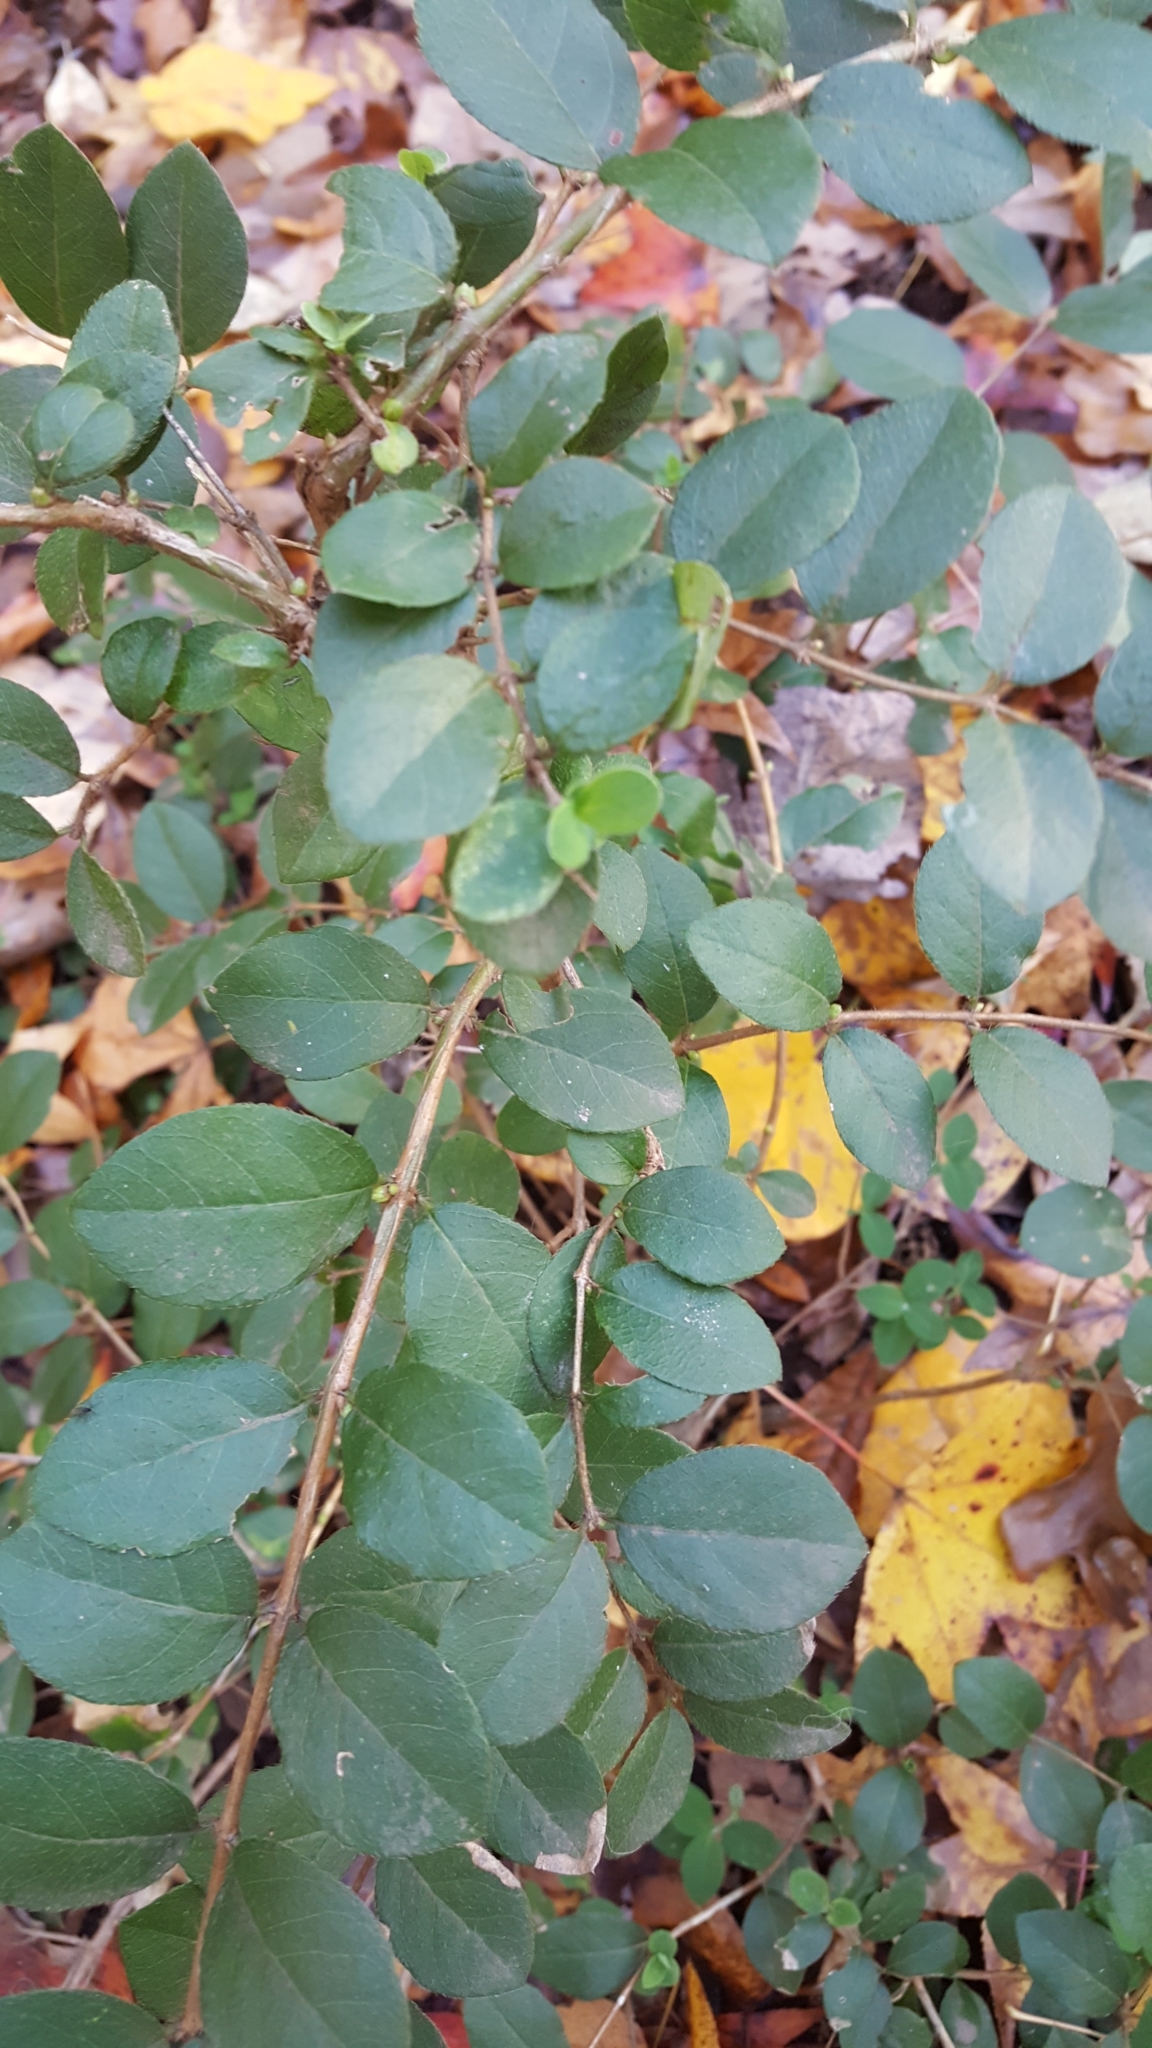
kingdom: Plantae
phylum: Tracheophyta
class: Magnoliopsida
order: Dipsacales
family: Caprifoliaceae
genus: Lonicera
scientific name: Lonicera fragrantissima
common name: Fragrant honeysuckle
